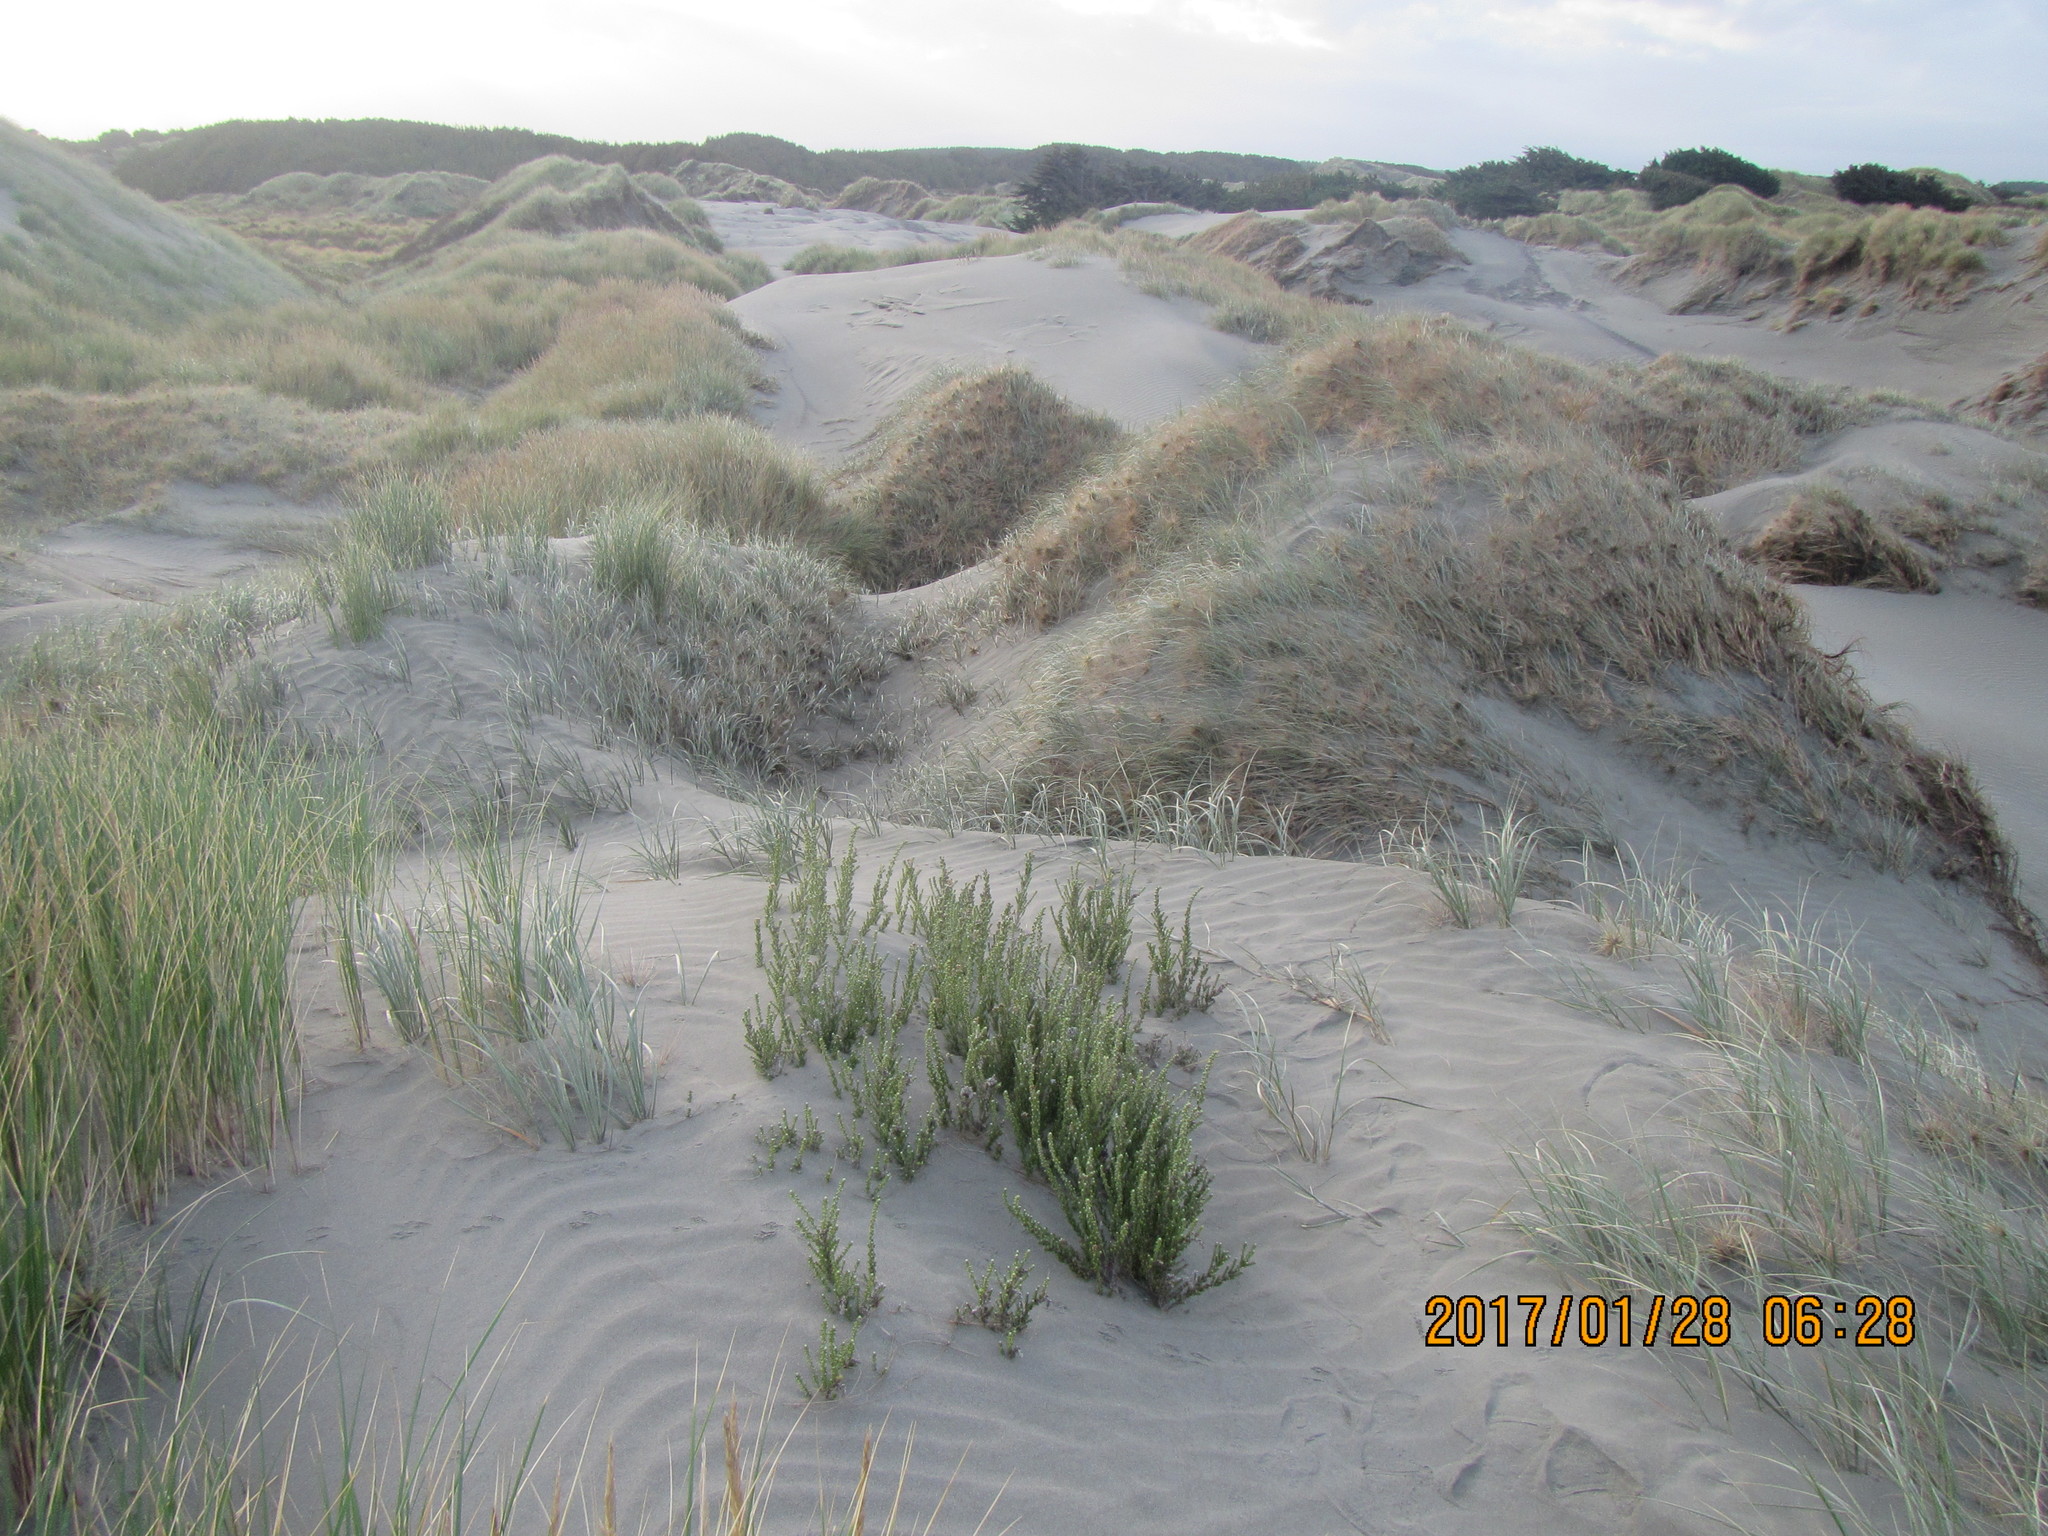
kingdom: Plantae
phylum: Tracheophyta
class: Magnoliopsida
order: Asterales
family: Asteraceae
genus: Ozothamnus
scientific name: Ozothamnus leptophyllus
